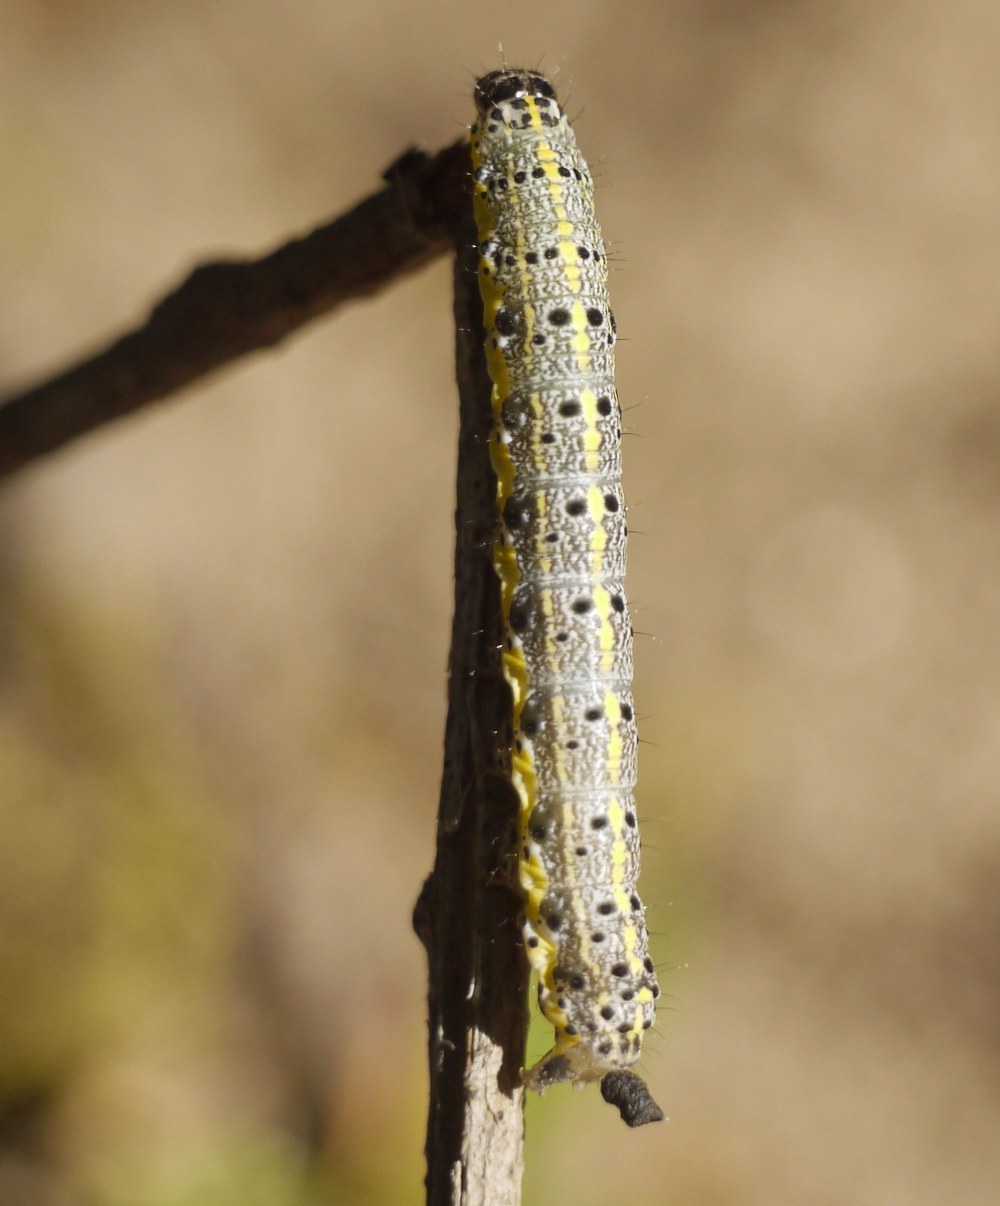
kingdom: Animalia
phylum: Arthropoda
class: Insecta
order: Lepidoptera
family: Noctuidae
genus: Orthosia
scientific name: Orthosia miniosa
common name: Blossom underwing
